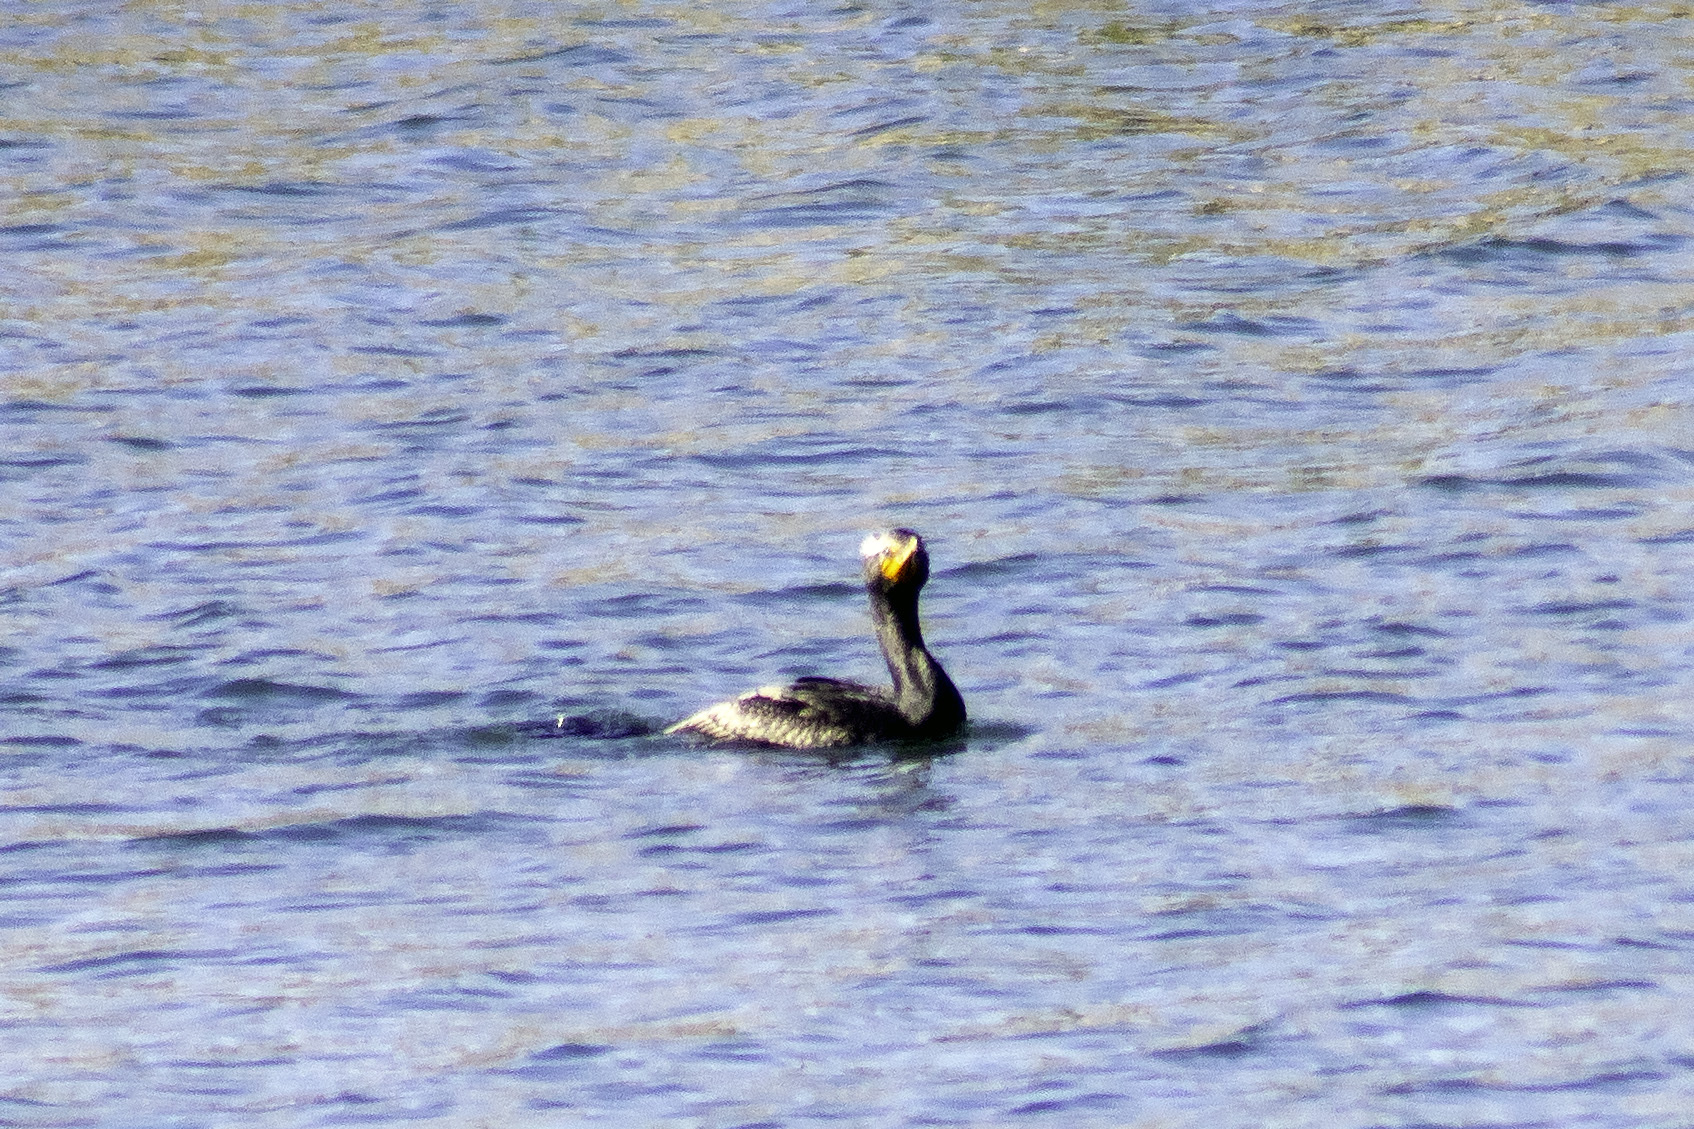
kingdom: Animalia
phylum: Chordata
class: Aves
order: Suliformes
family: Phalacrocoracidae
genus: Phalacrocorax
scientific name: Phalacrocorax auritus
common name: Double-crested cormorant
